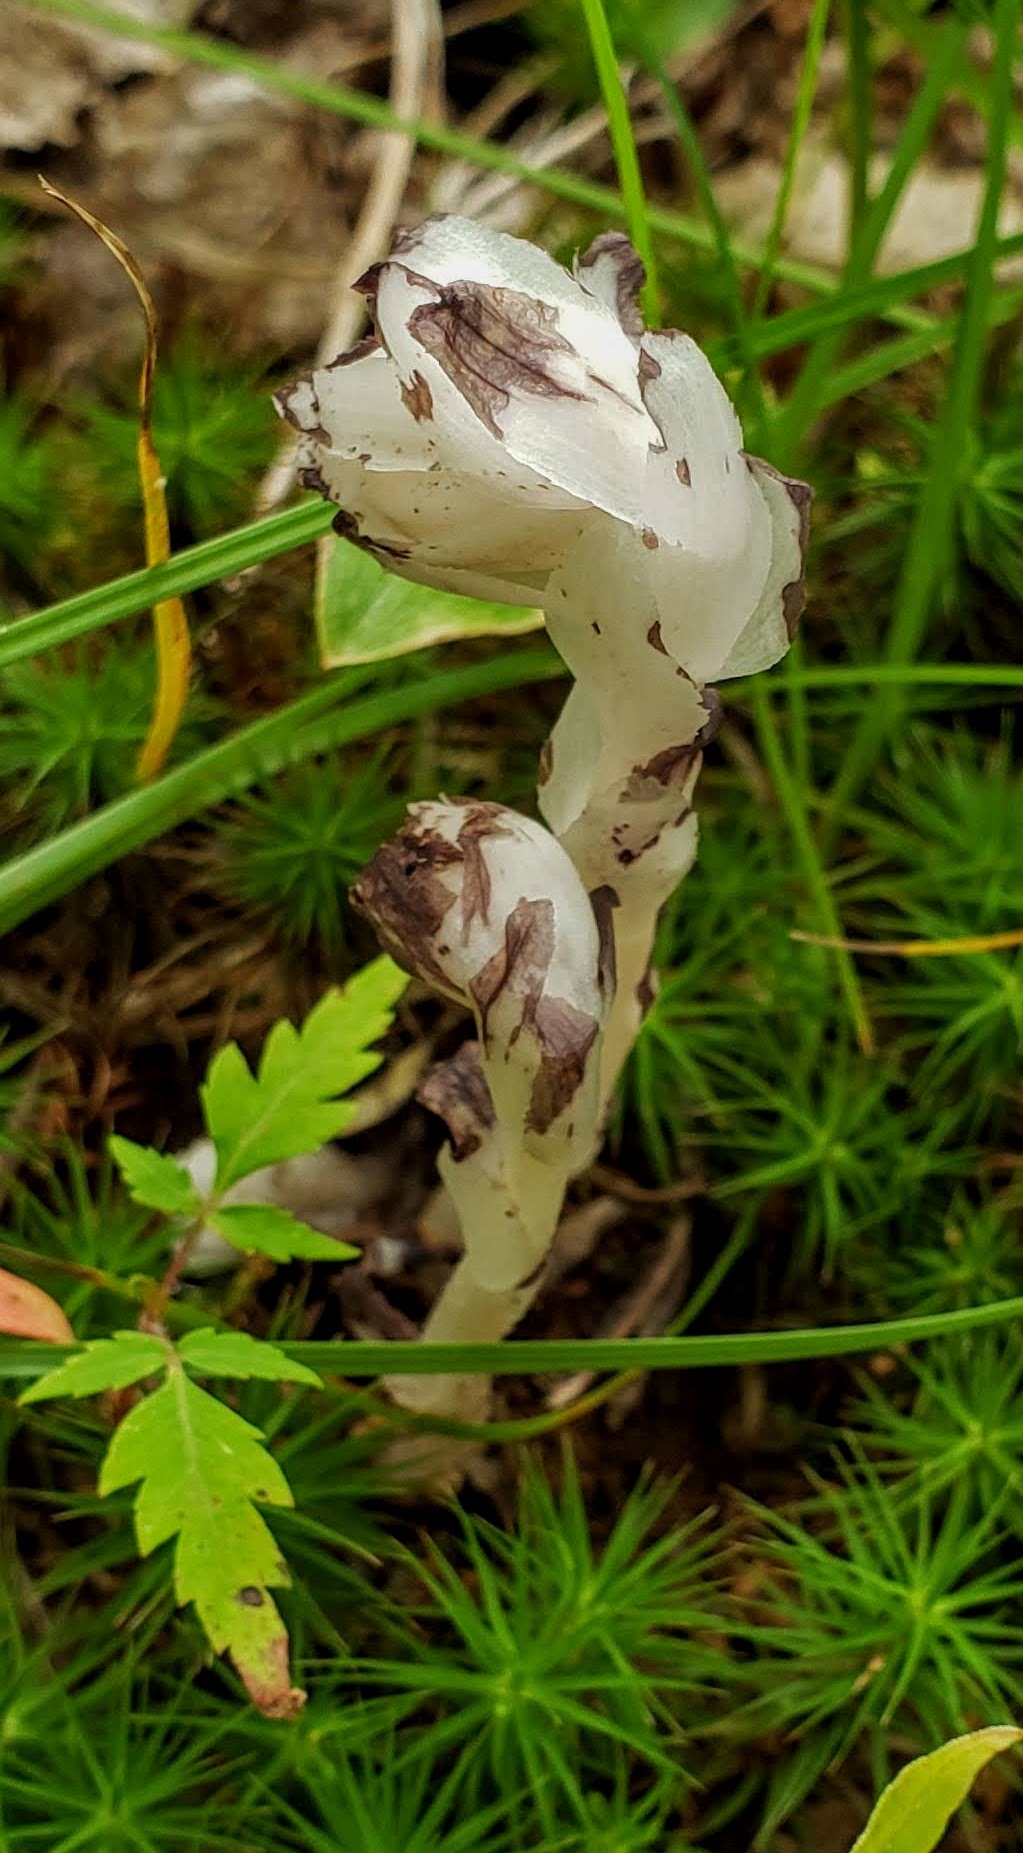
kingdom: Plantae
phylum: Tracheophyta
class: Magnoliopsida
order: Ericales
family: Ericaceae
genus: Monotropa
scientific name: Monotropa uniflora
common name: Convulsion root
